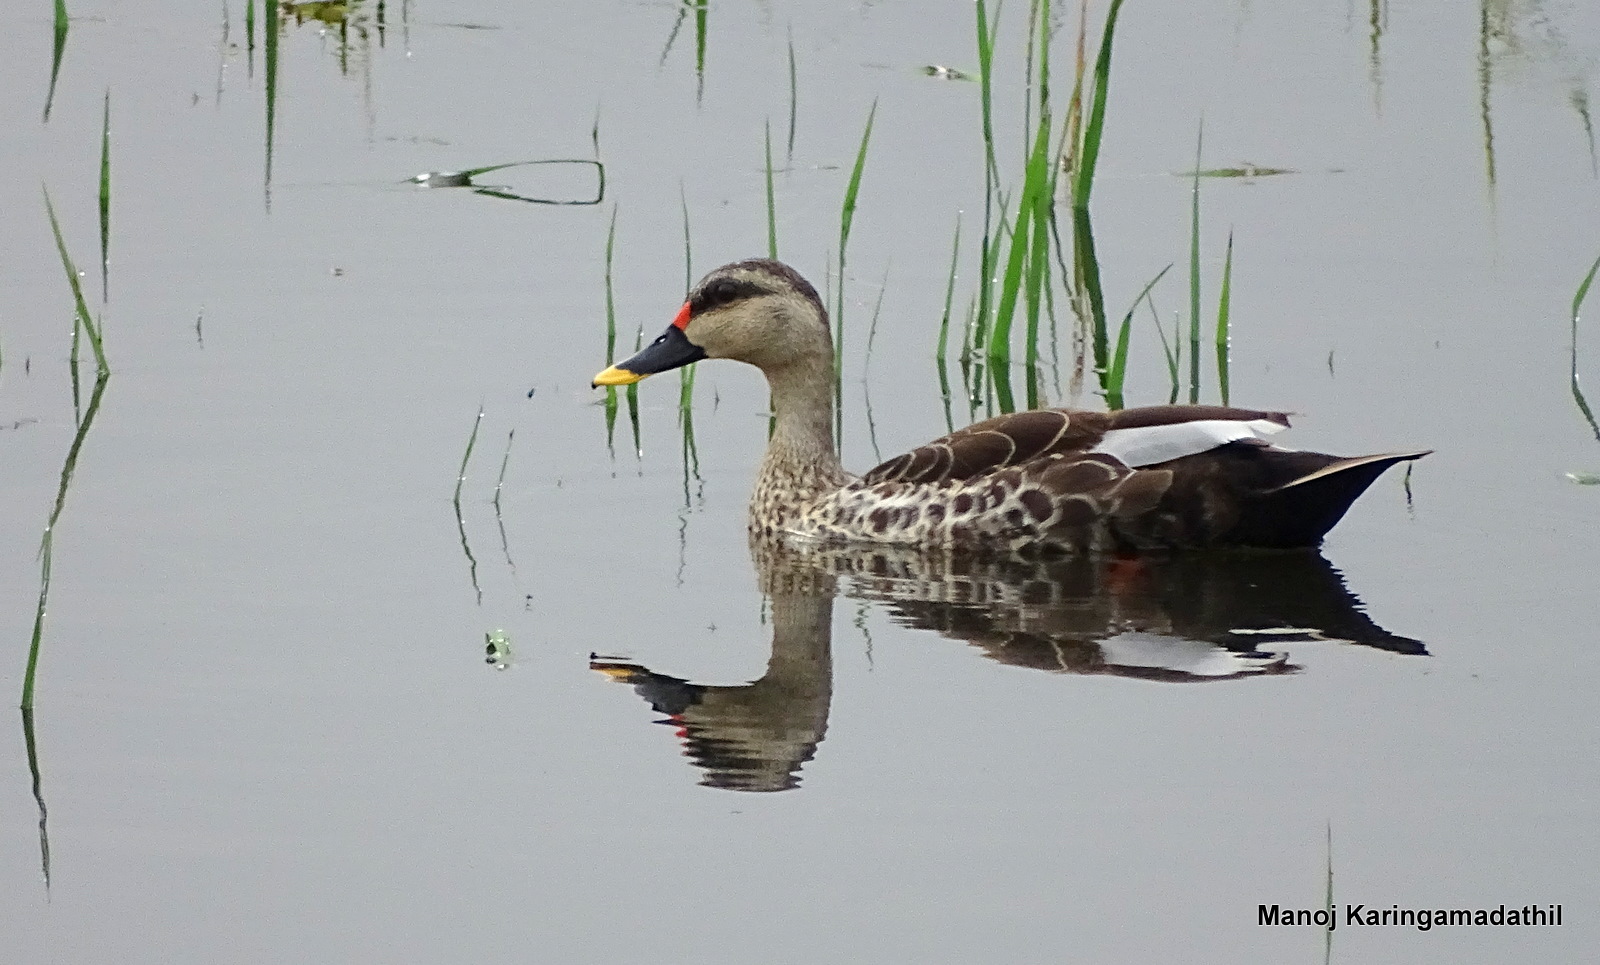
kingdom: Animalia
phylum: Chordata
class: Aves
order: Anseriformes
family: Anatidae
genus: Anas
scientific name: Anas poecilorhyncha
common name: Indian spot-billed duck
